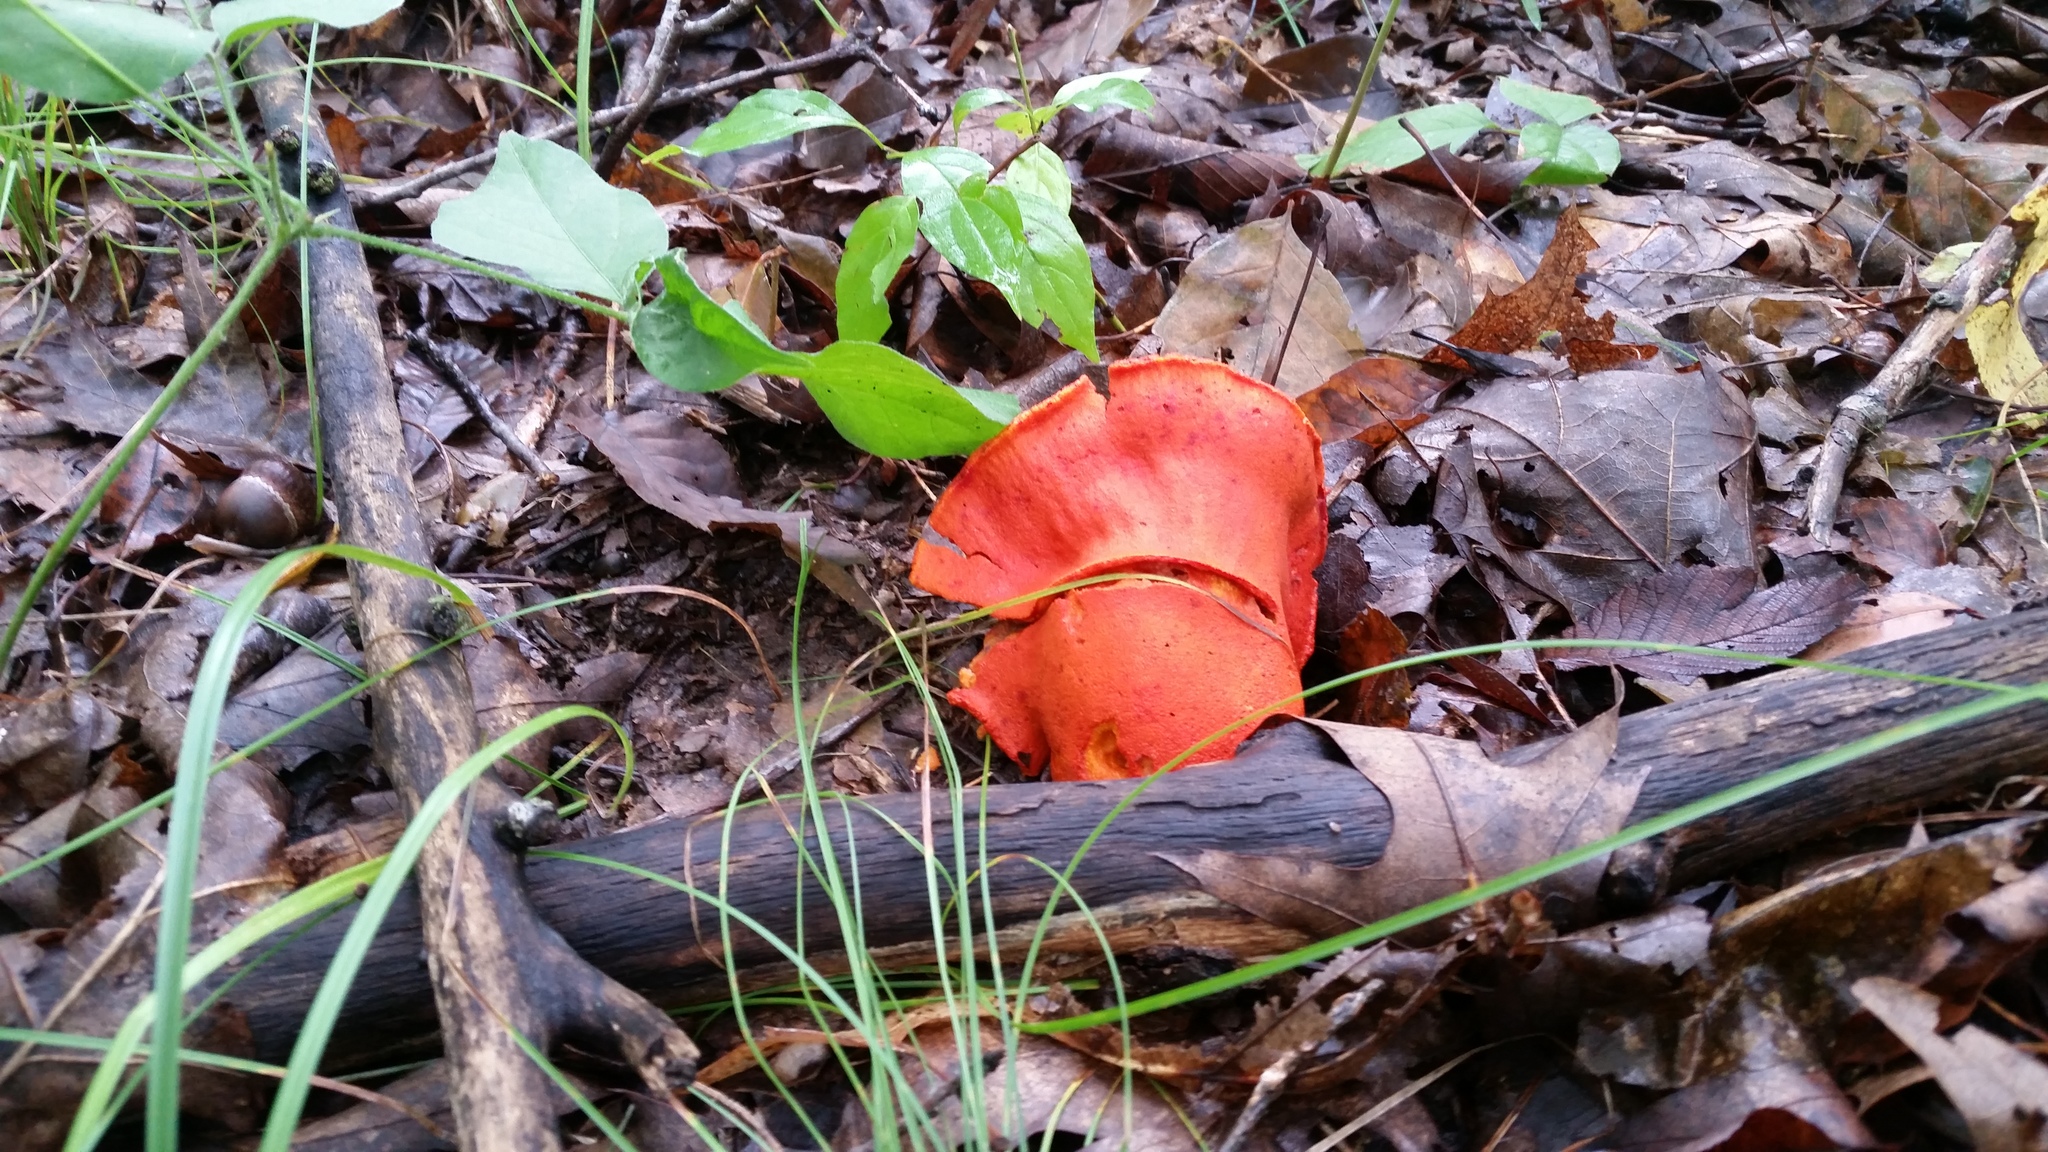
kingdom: Fungi
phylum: Ascomycota
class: Sordariomycetes
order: Hypocreales
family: Hypocreaceae
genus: Hypomyces
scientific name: Hypomyces lactifluorum
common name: Lobster mushroom
